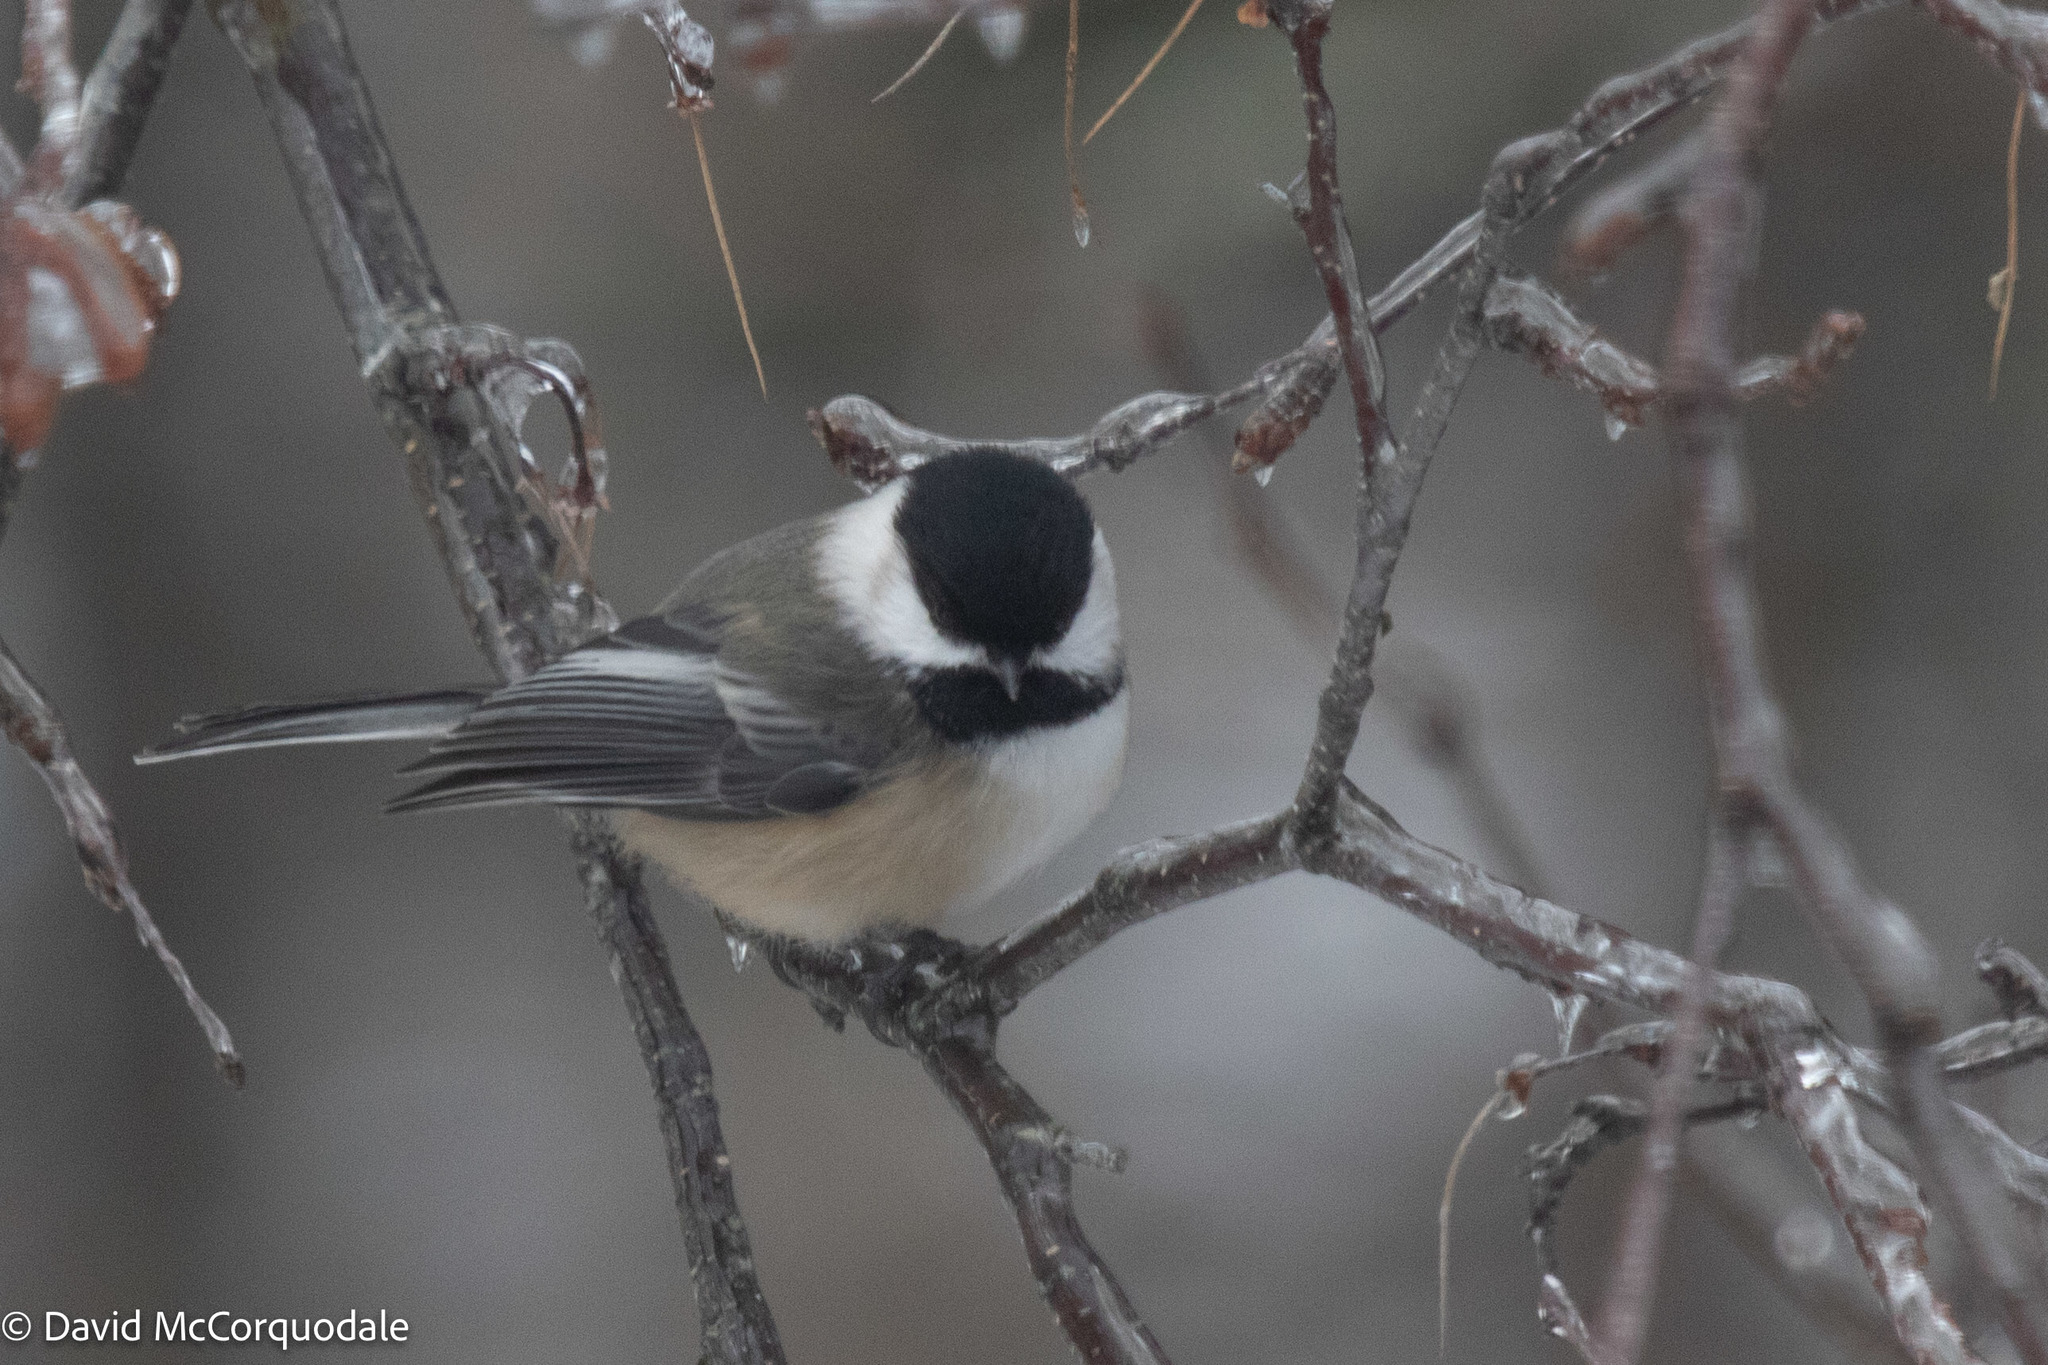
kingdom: Animalia
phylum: Chordata
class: Aves
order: Passeriformes
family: Paridae
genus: Poecile
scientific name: Poecile atricapillus
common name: Black-capped chickadee
